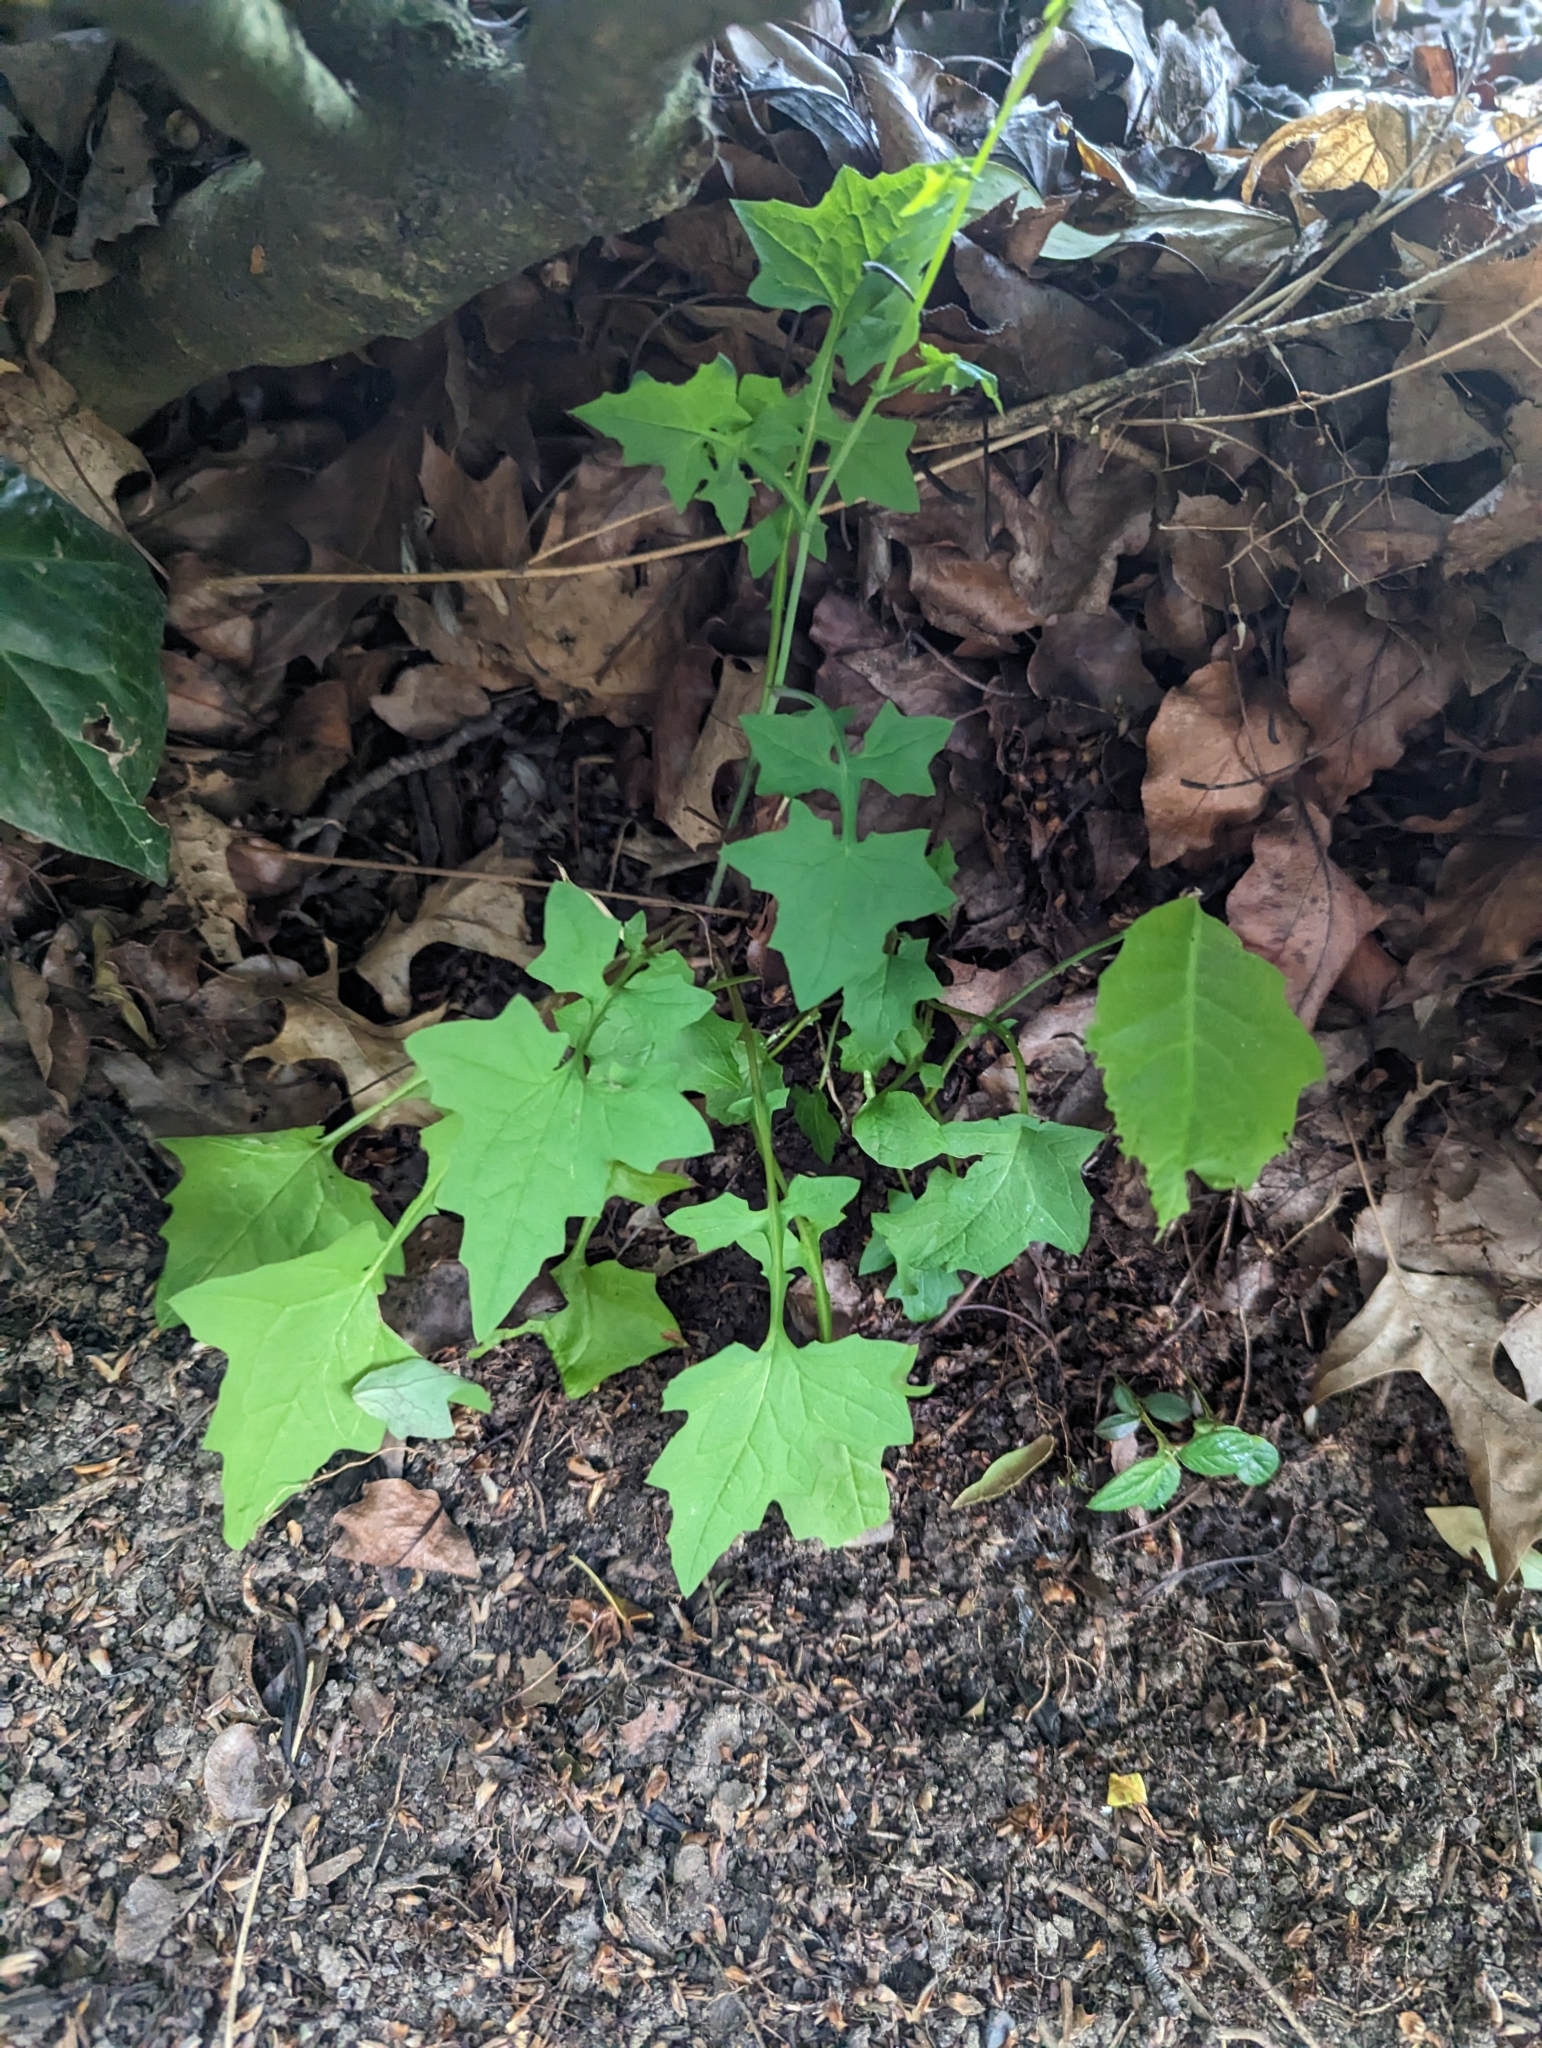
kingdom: Plantae
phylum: Tracheophyta
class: Magnoliopsida
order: Asterales
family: Asteraceae
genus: Mycelis
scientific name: Mycelis muralis
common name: Wall lettuce
